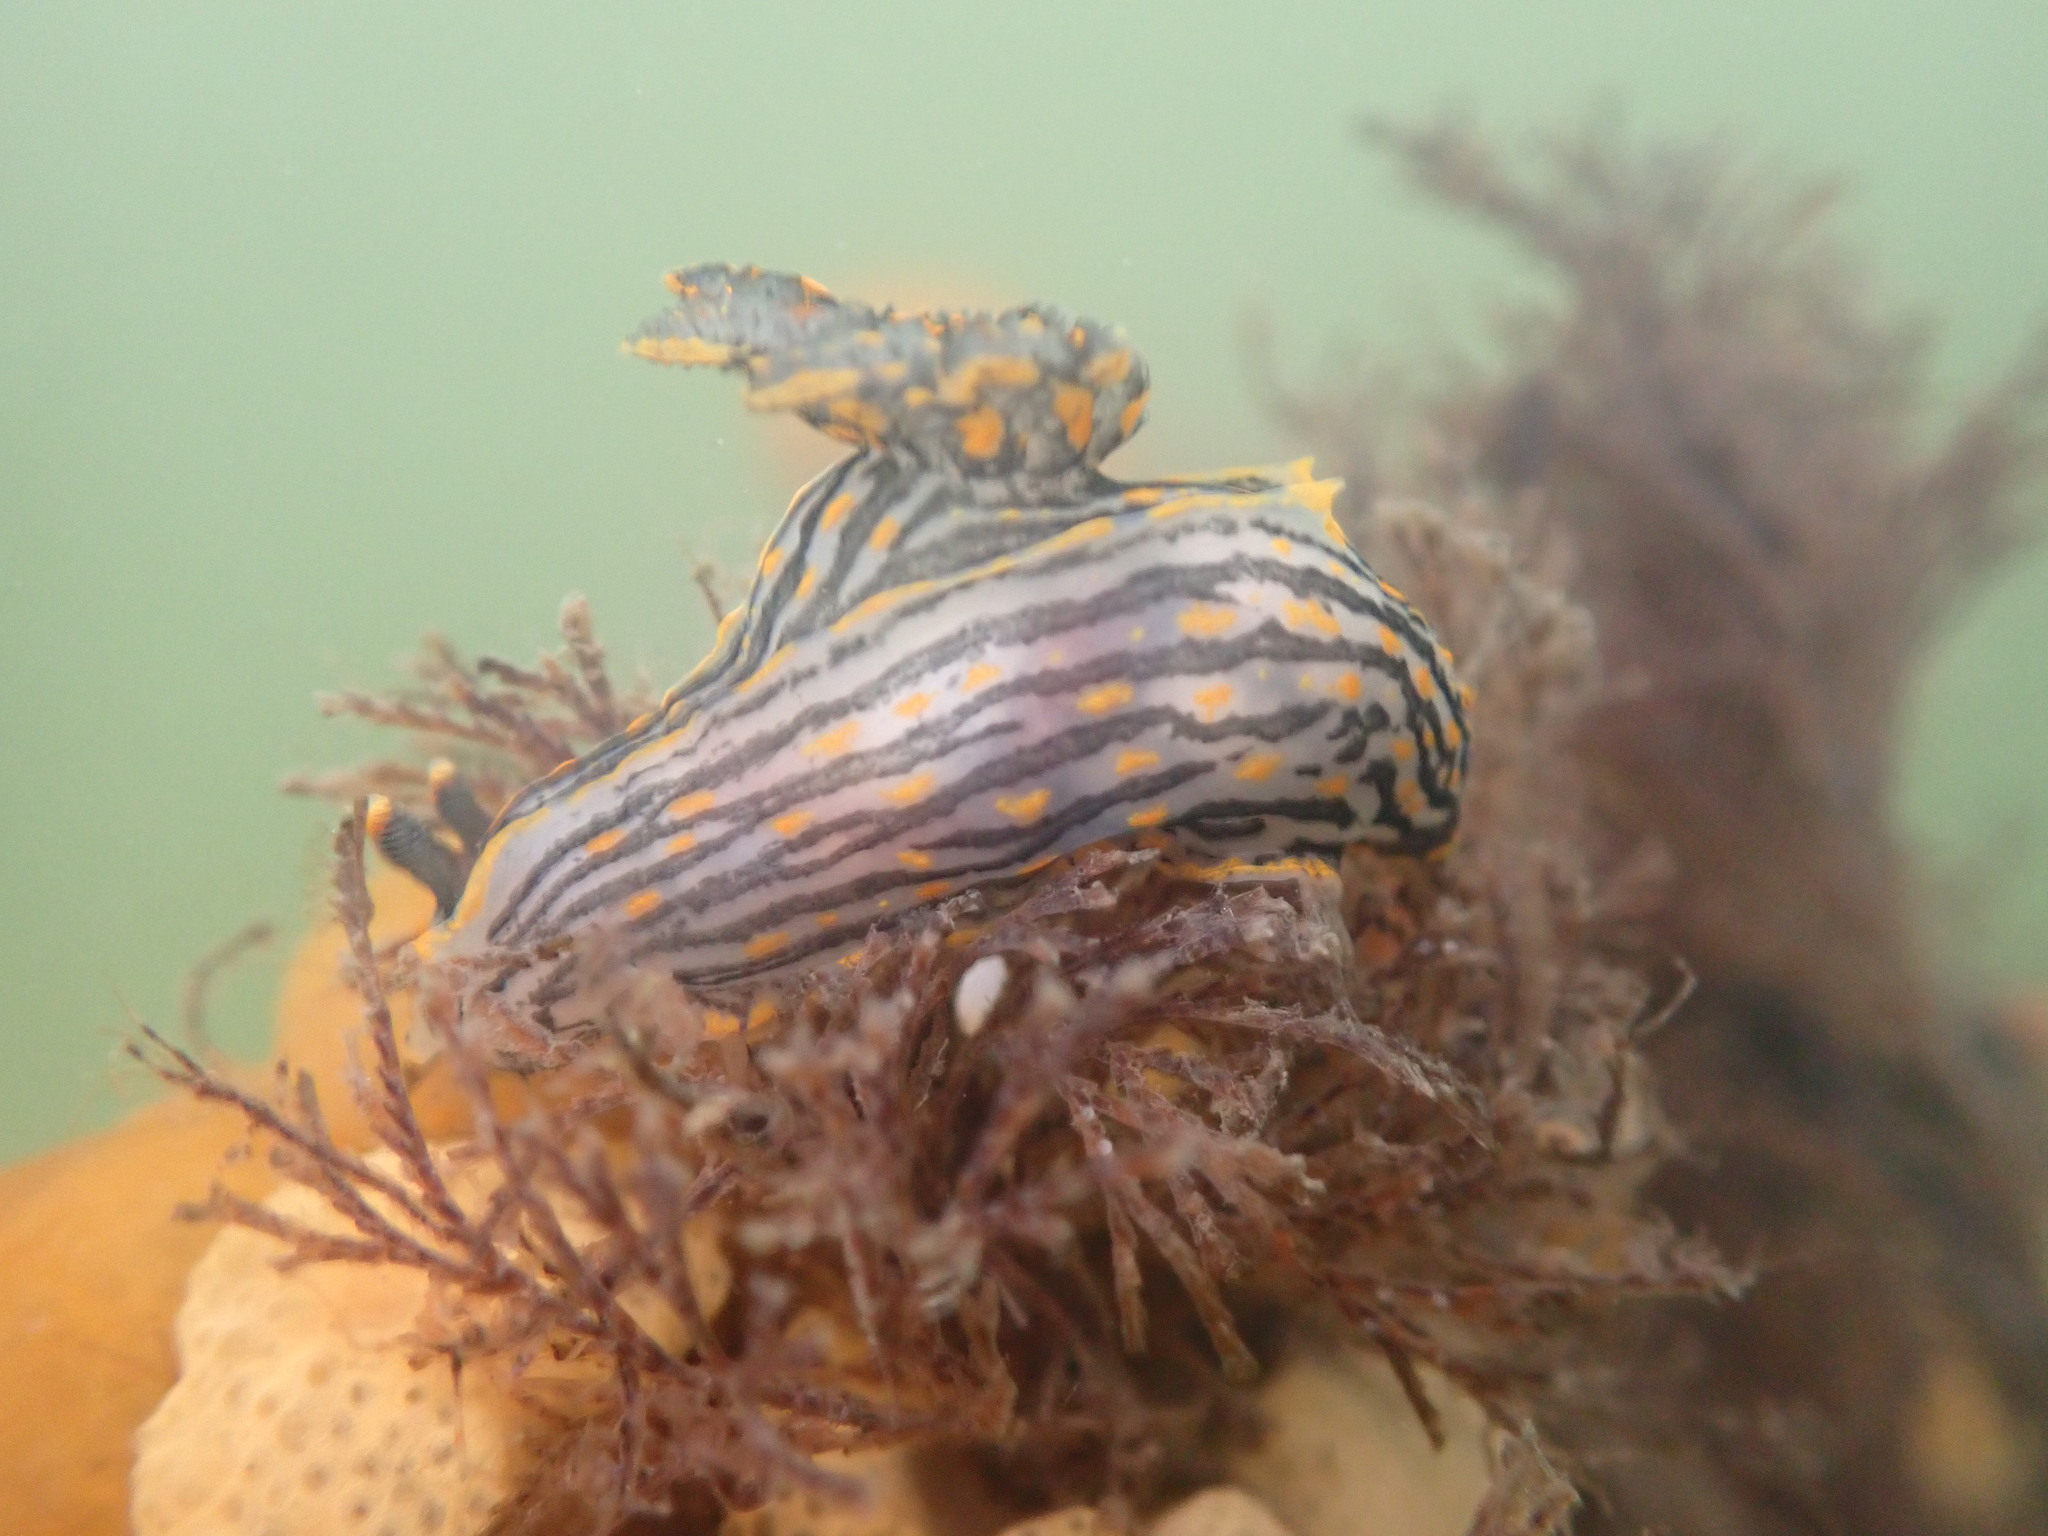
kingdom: Animalia
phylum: Mollusca
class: Gastropoda
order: Nudibranchia
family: Polyceridae
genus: Polycera
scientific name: Polycera atra
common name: Orange-spike polycera
